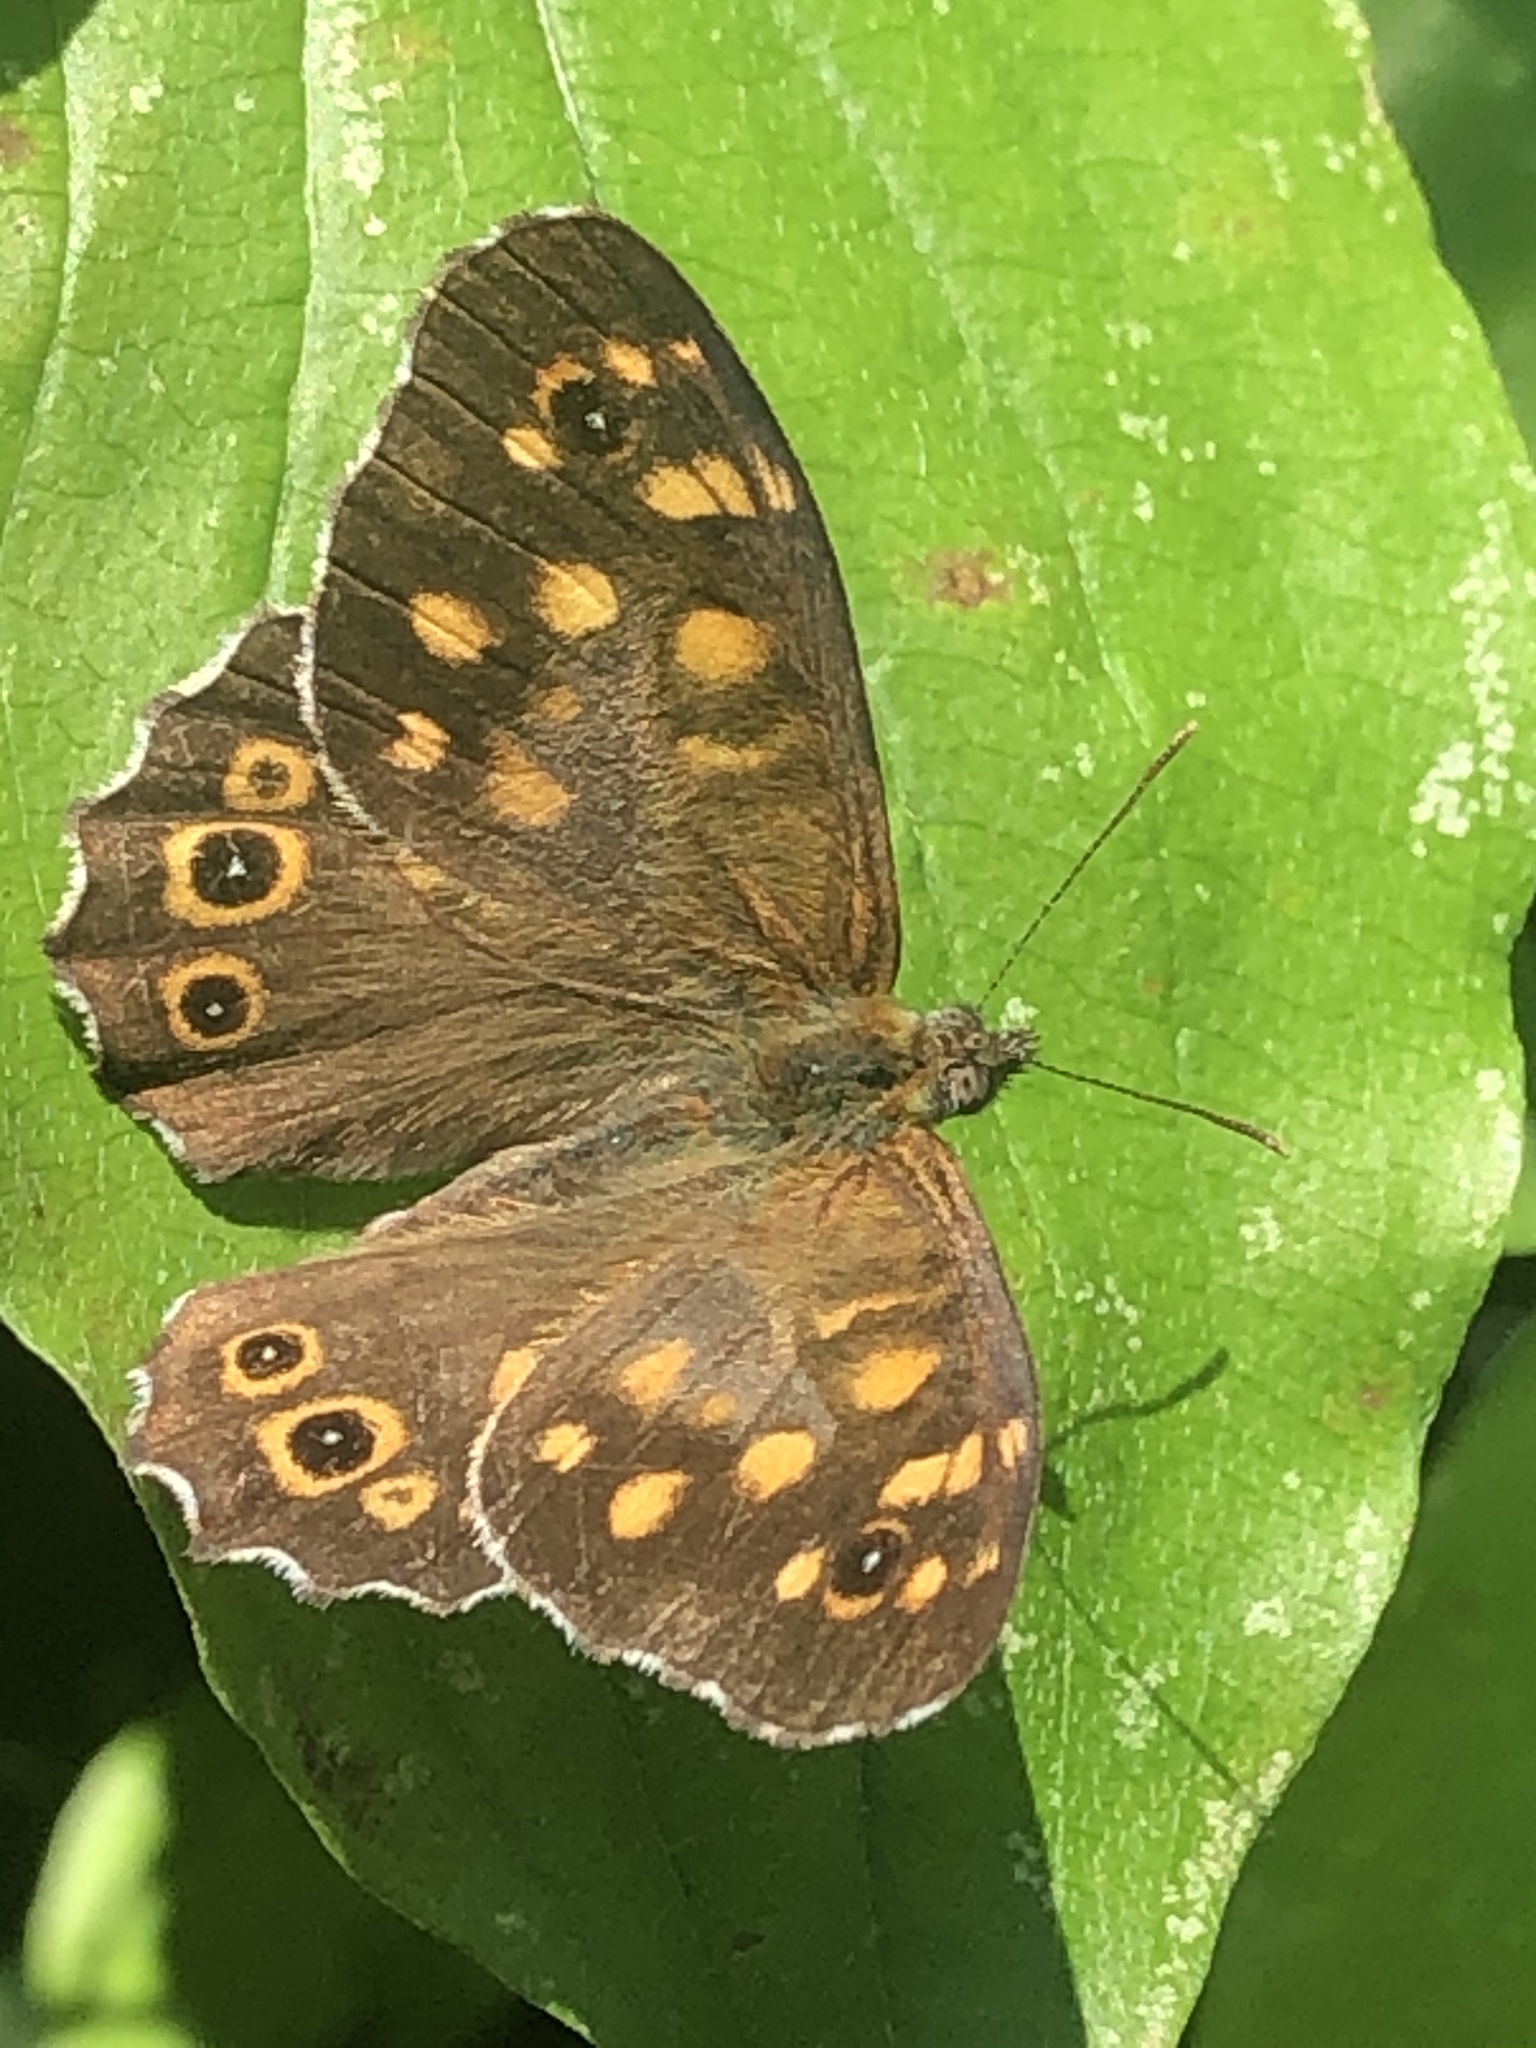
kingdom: Animalia
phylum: Arthropoda
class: Insecta
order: Lepidoptera
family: Nymphalidae
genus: Pararge
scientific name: Pararge aegeria
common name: Speckled wood
